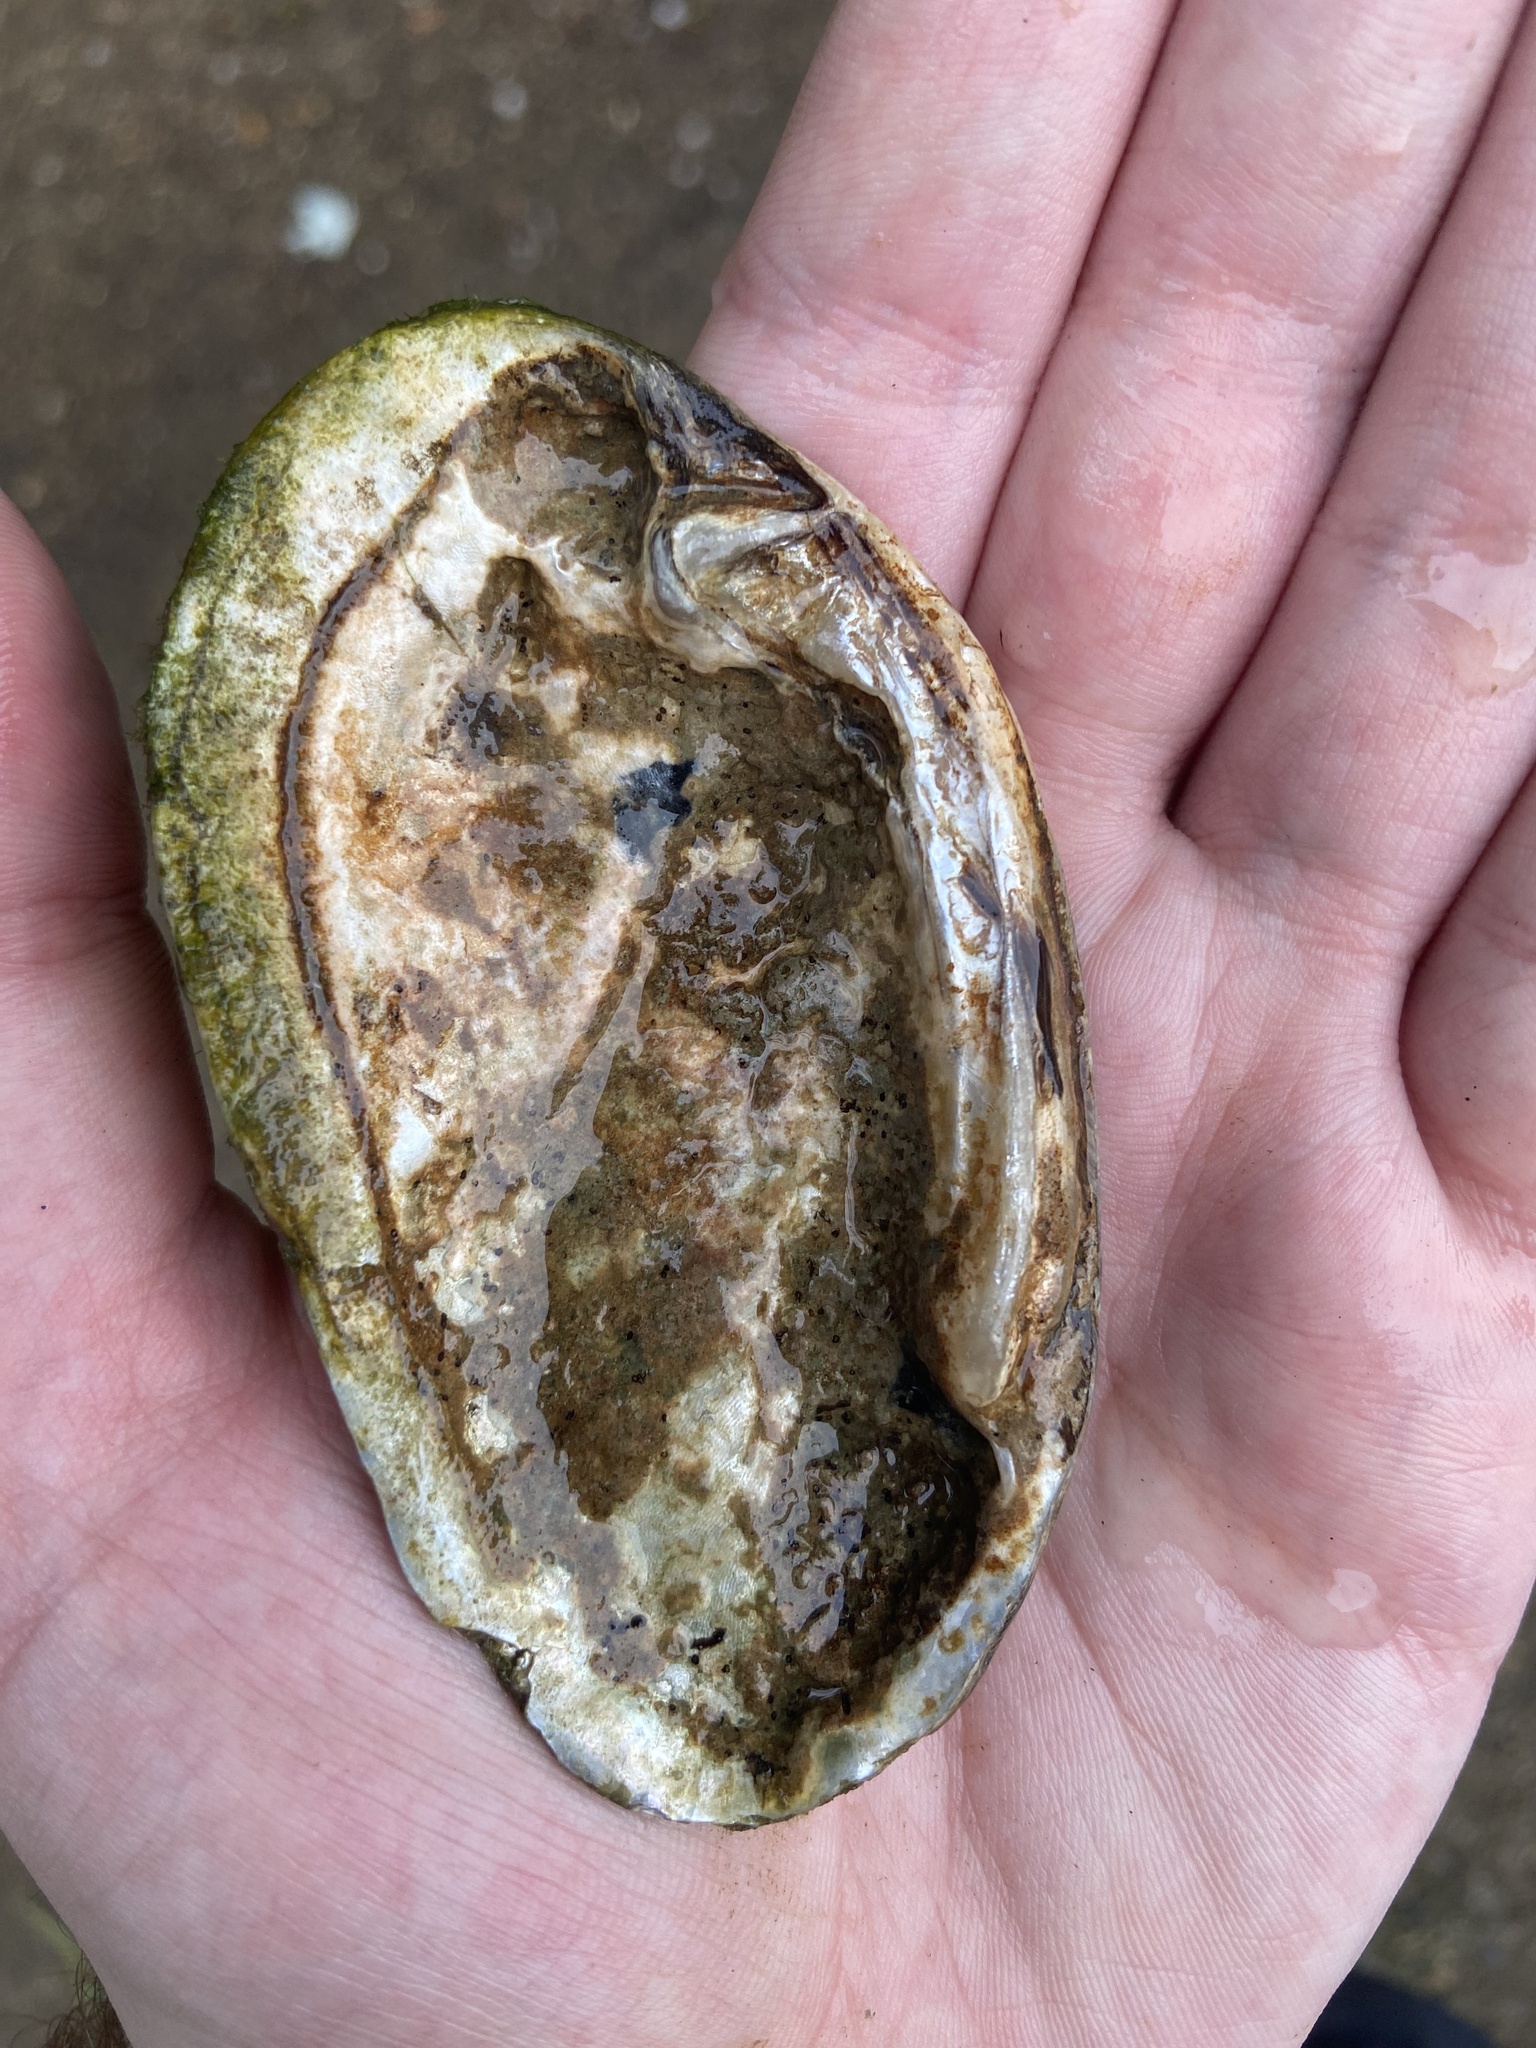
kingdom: Animalia
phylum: Mollusca
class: Bivalvia
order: Unionida
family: Unionidae
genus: Ptychobranchus
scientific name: Ptychobranchus fasciolaris
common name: Kidneyshell
